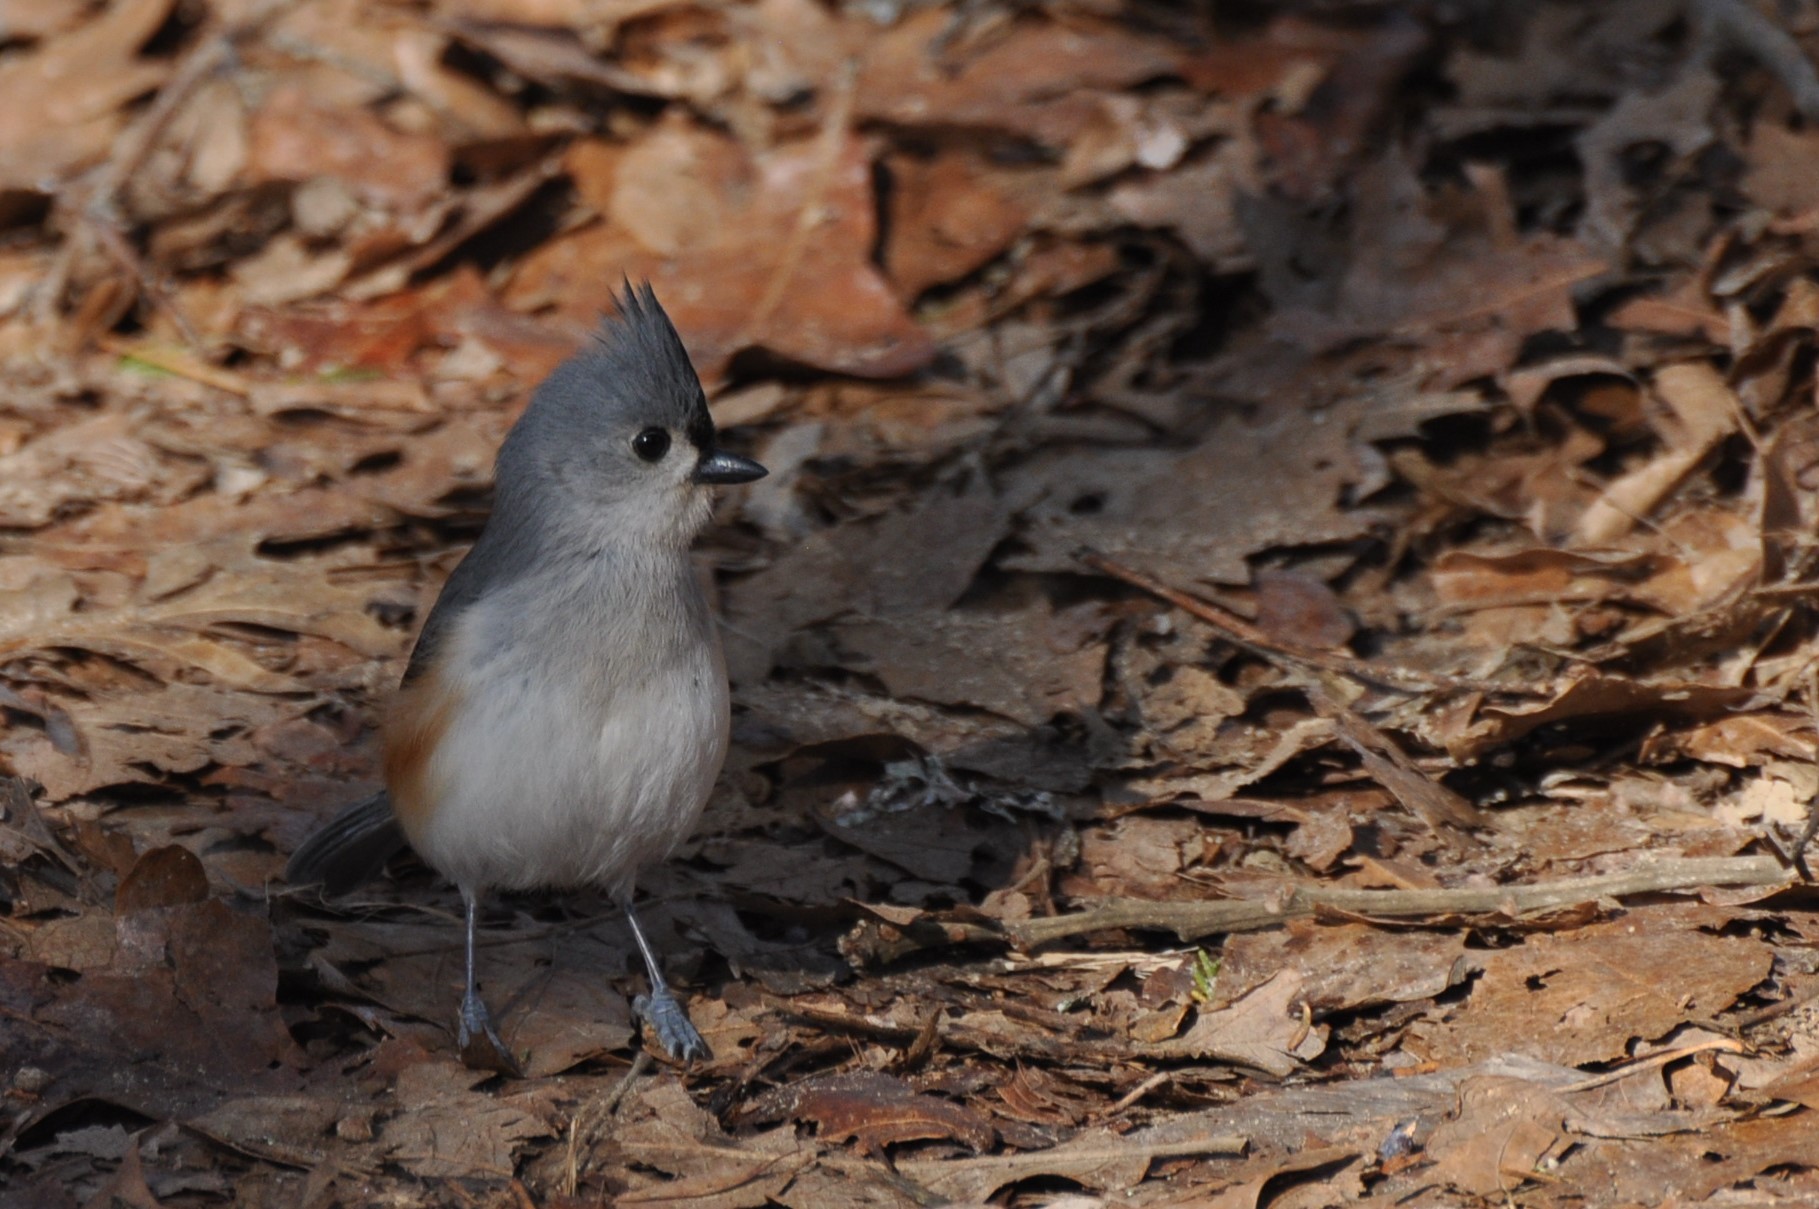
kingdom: Animalia
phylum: Chordata
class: Aves
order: Passeriformes
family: Paridae
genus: Baeolophus
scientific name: Baeolophus bicolor
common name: Tufted titmouse
